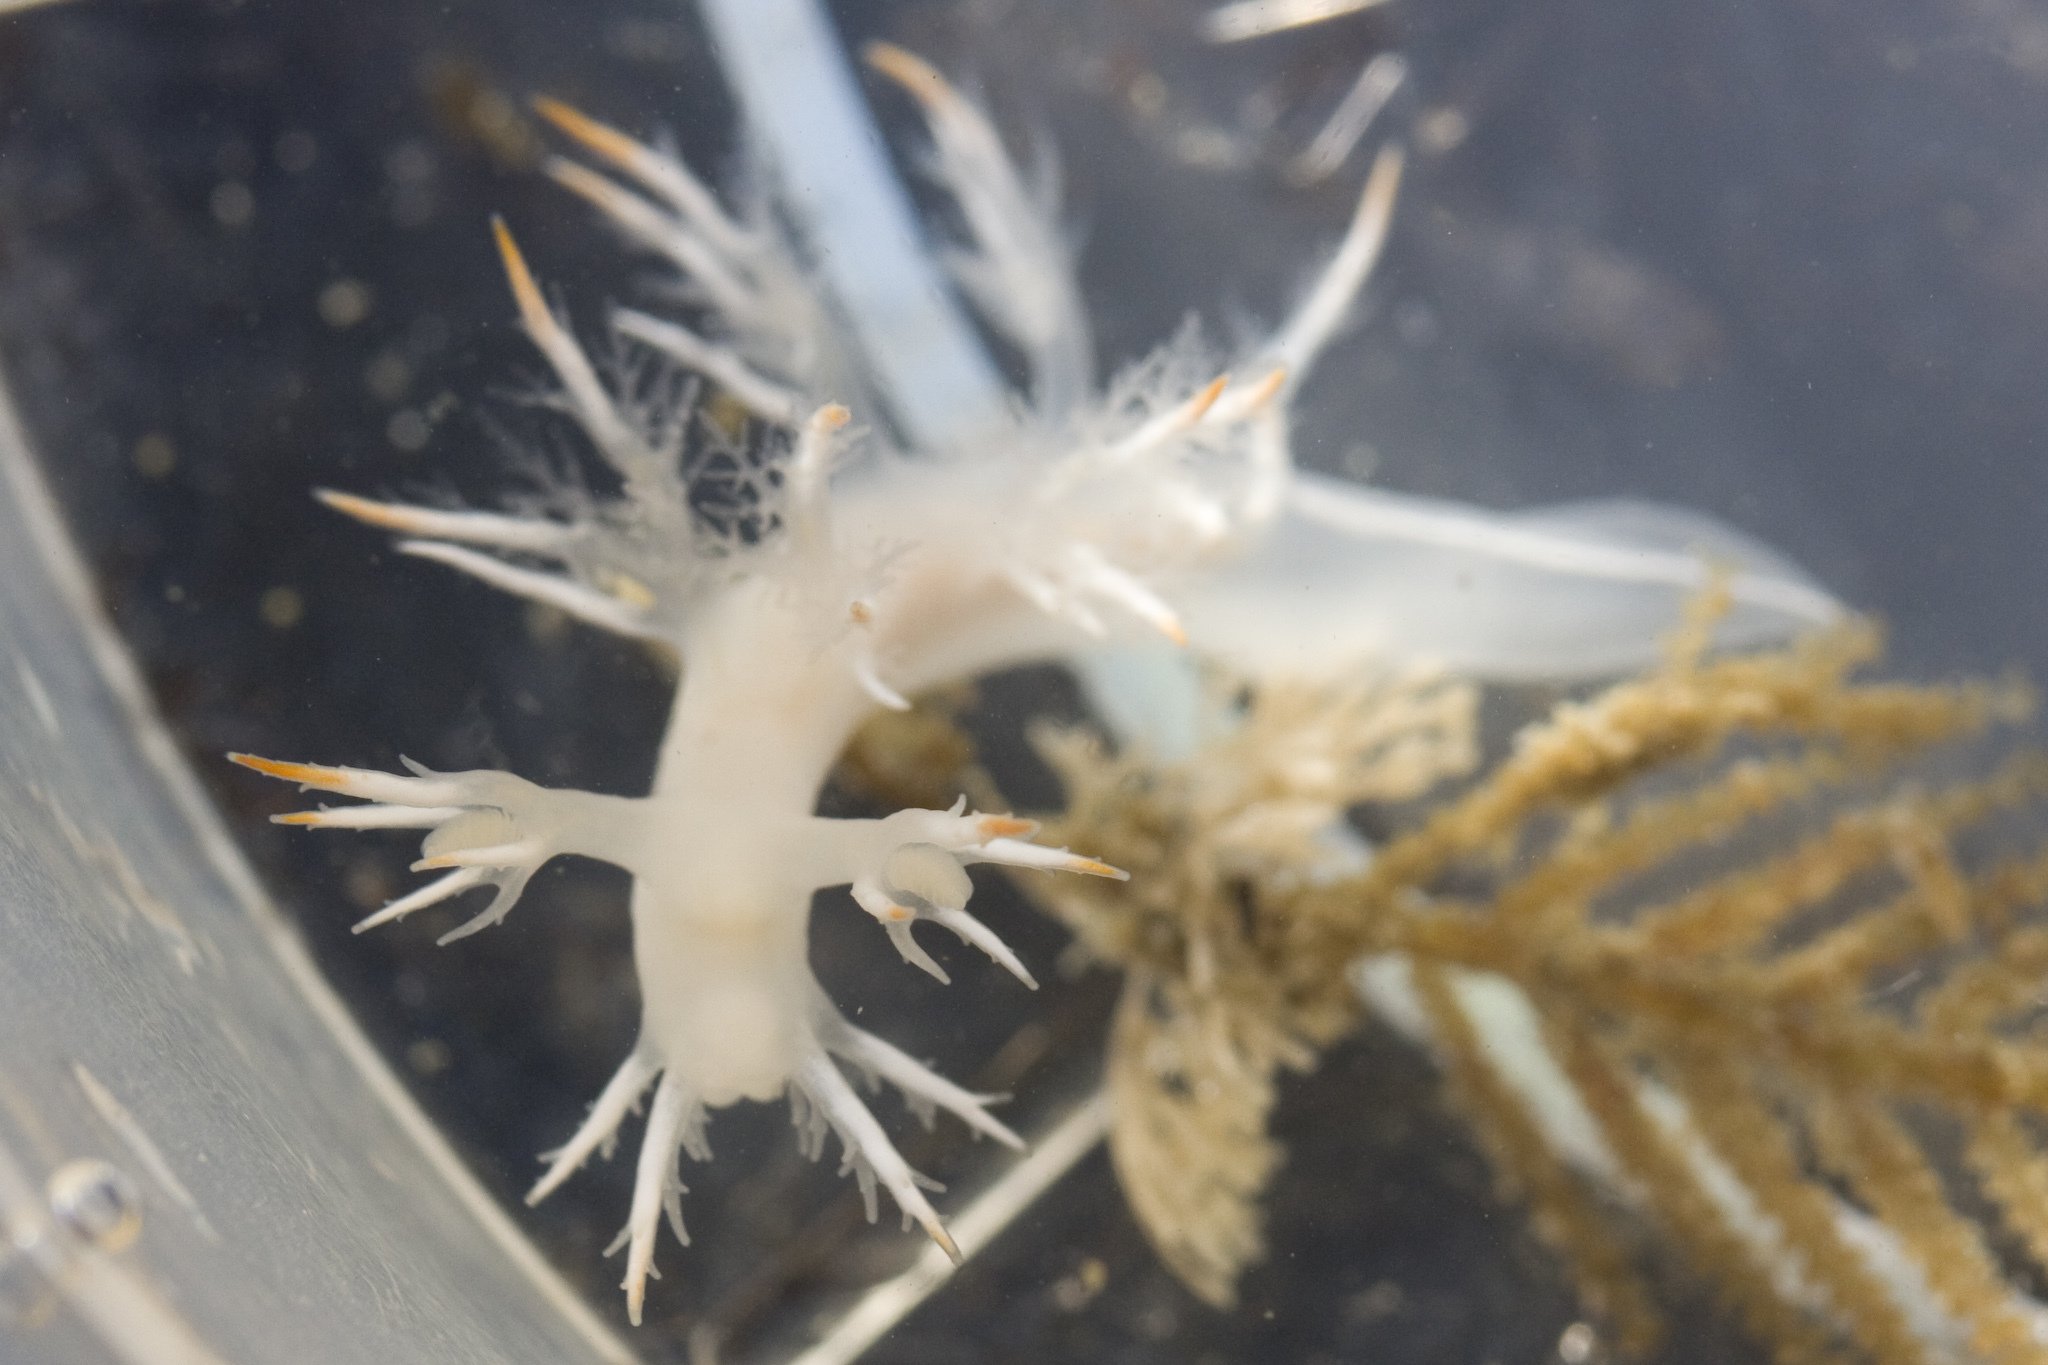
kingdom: Animalia
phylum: Mollusca
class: Gastropoda
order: Nudibranchia
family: Dendronotidae
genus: Dendronotus
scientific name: Dendronotus albus
